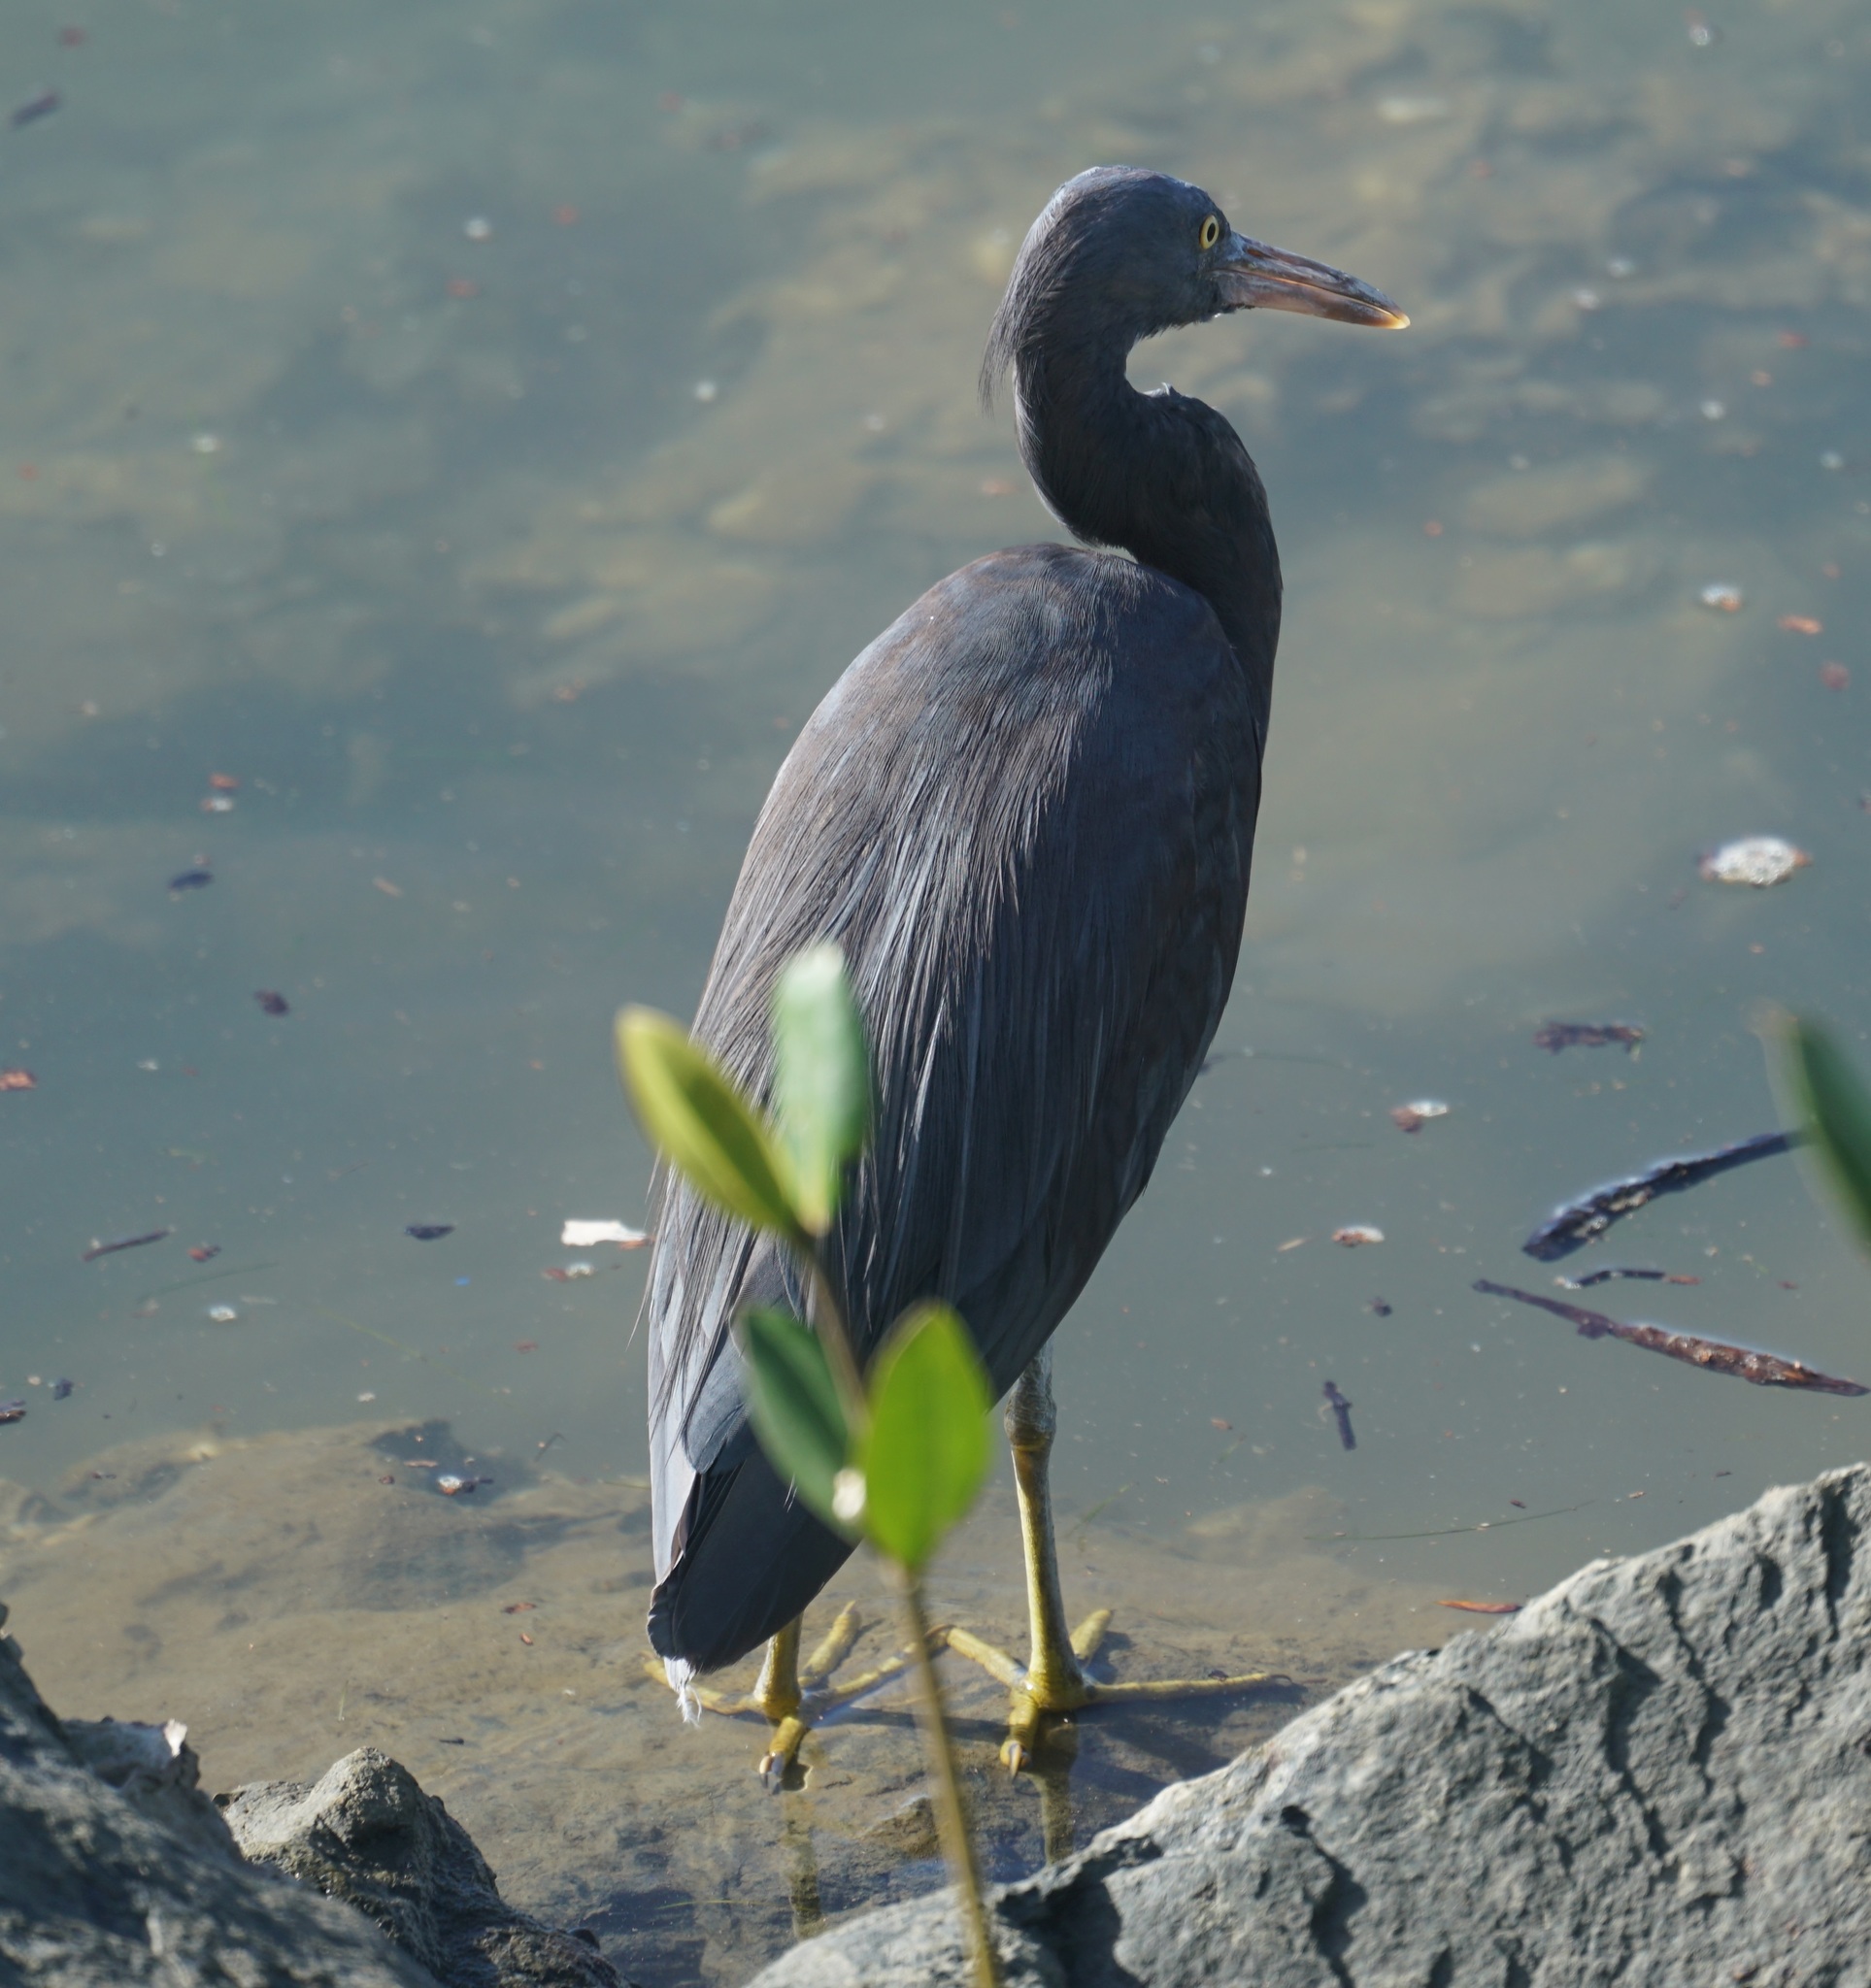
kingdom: Animalia
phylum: Chordata
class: Aves
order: Pelecaniformes
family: Ardeidae
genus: Egretta
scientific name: Egretta sacra
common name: Pacific reef heron
